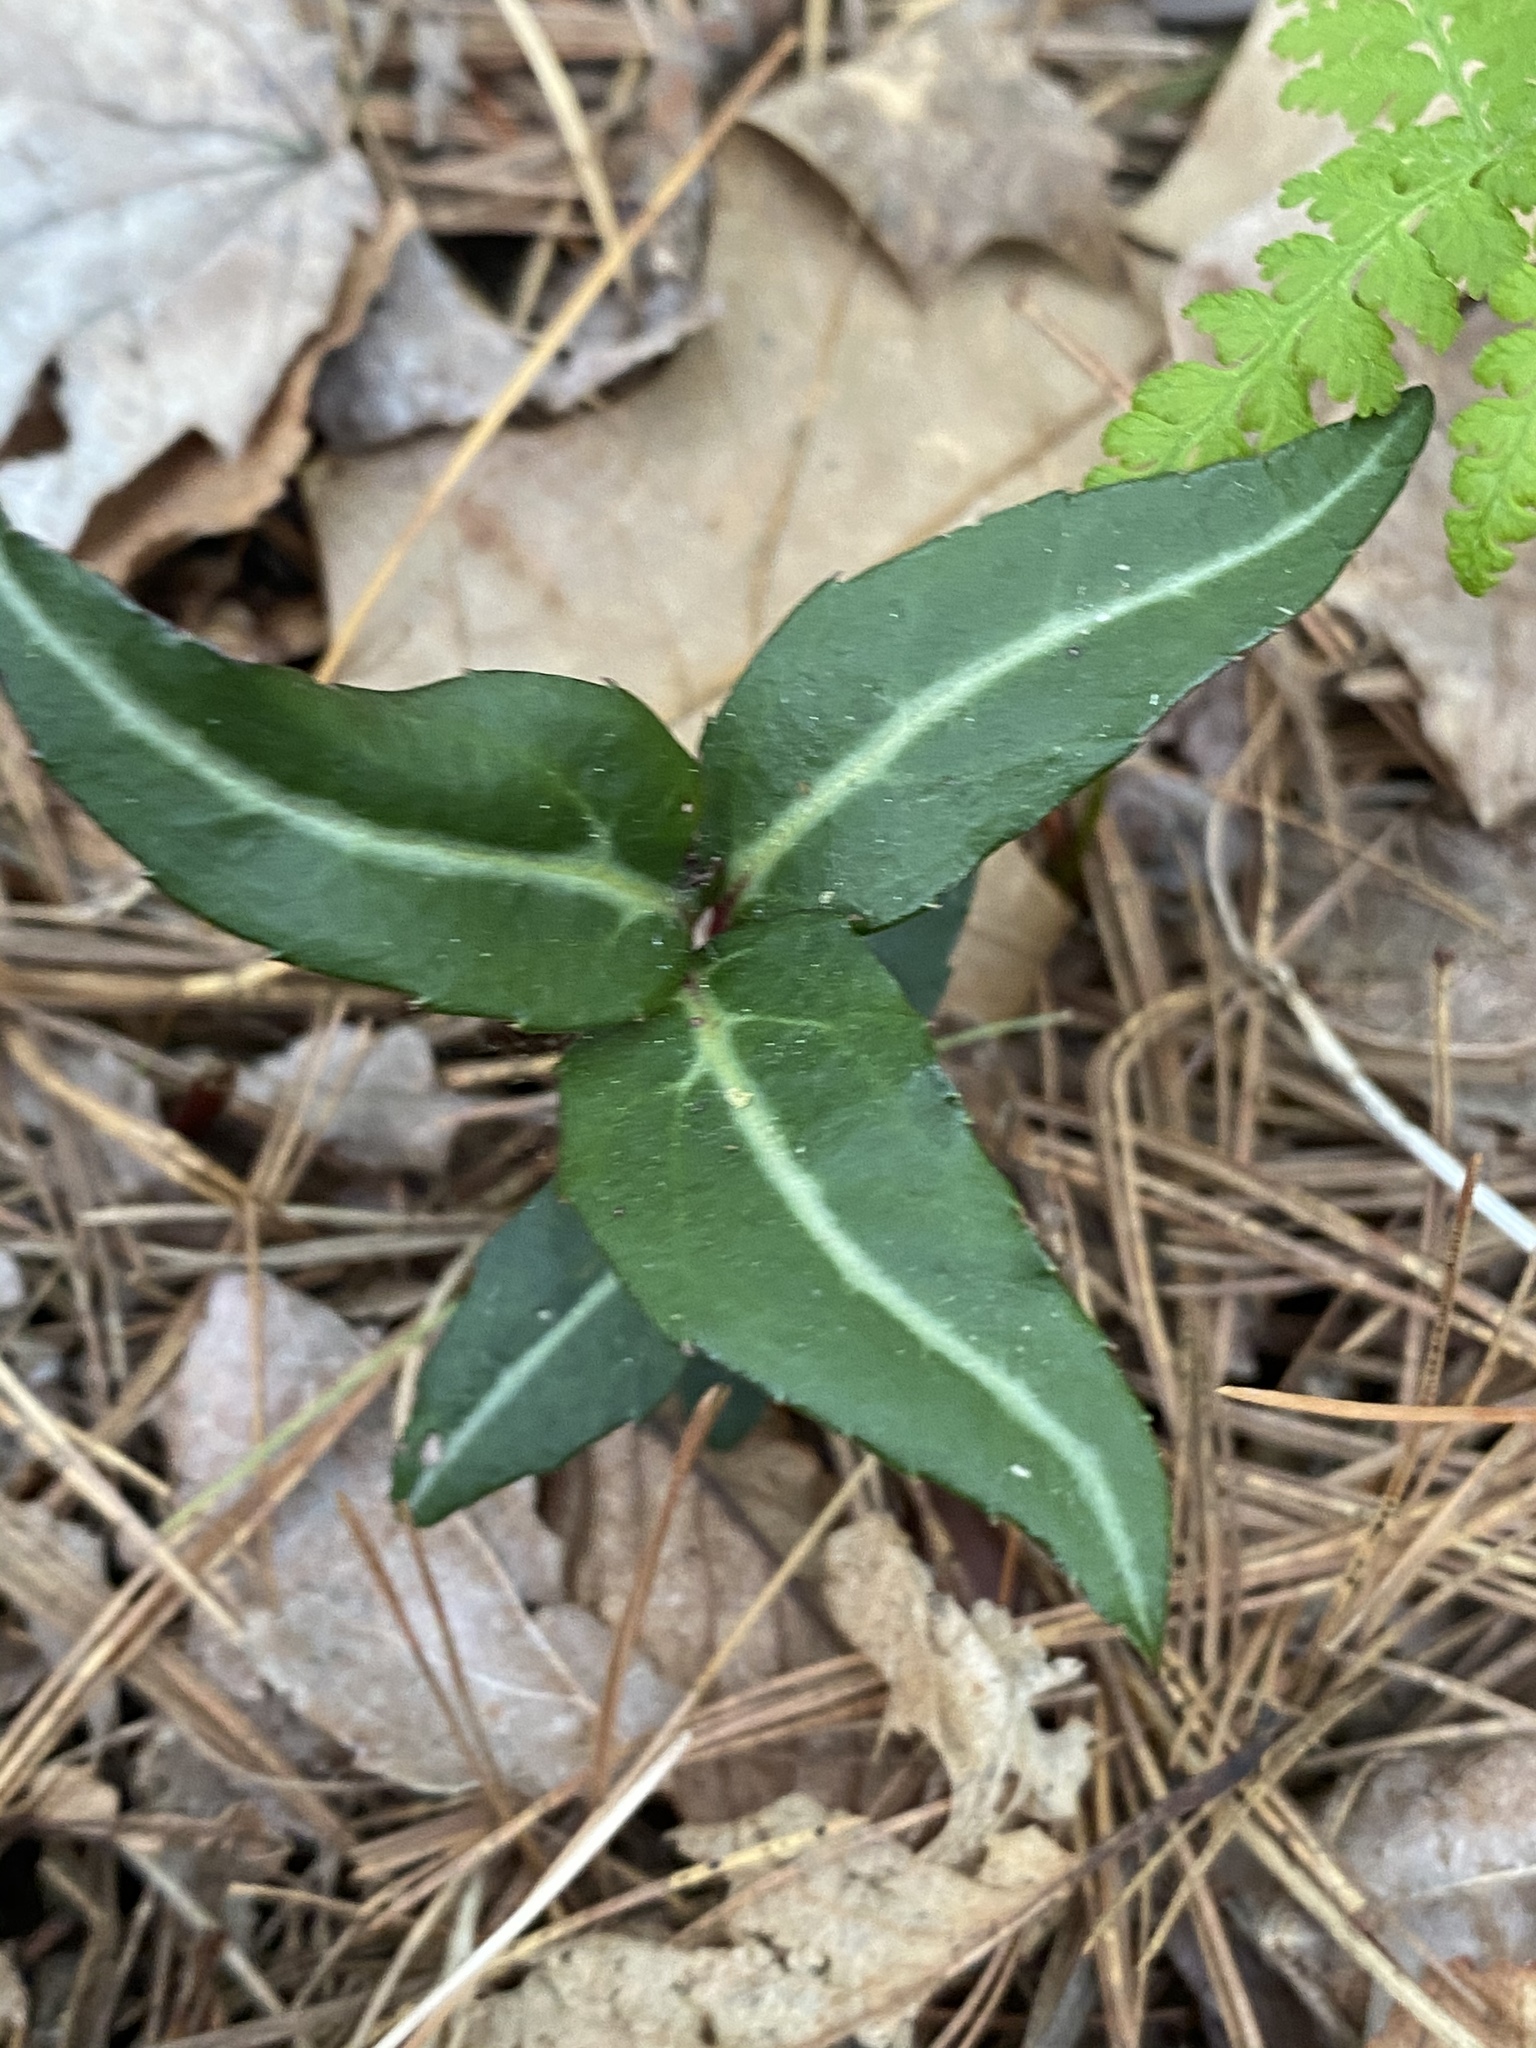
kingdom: Plantae
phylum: Tracheophyta
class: Magnoliopsida
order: Ericales
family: Ericaceae
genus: Chimaphila
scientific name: Chimaphila maculata
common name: Spotted pipsissewa
